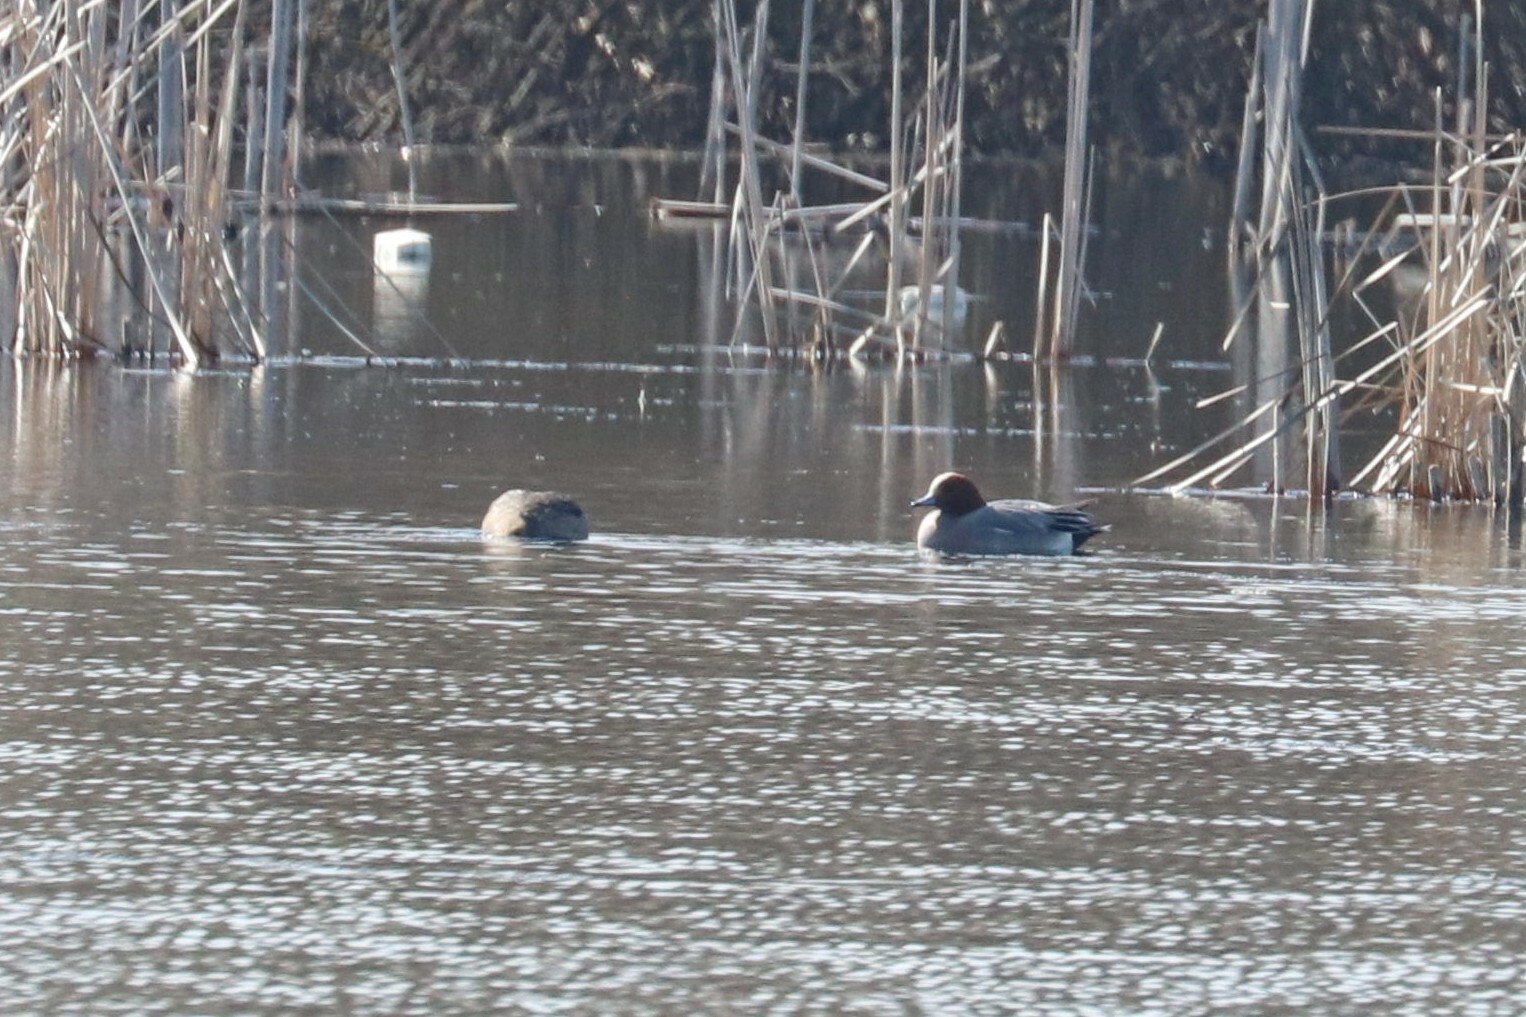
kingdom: Animalia
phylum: Chordata
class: Aves
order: Anseriformes
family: Anatidae
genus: Mareca
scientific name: Mareca penelope
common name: Eurasian wigeon
